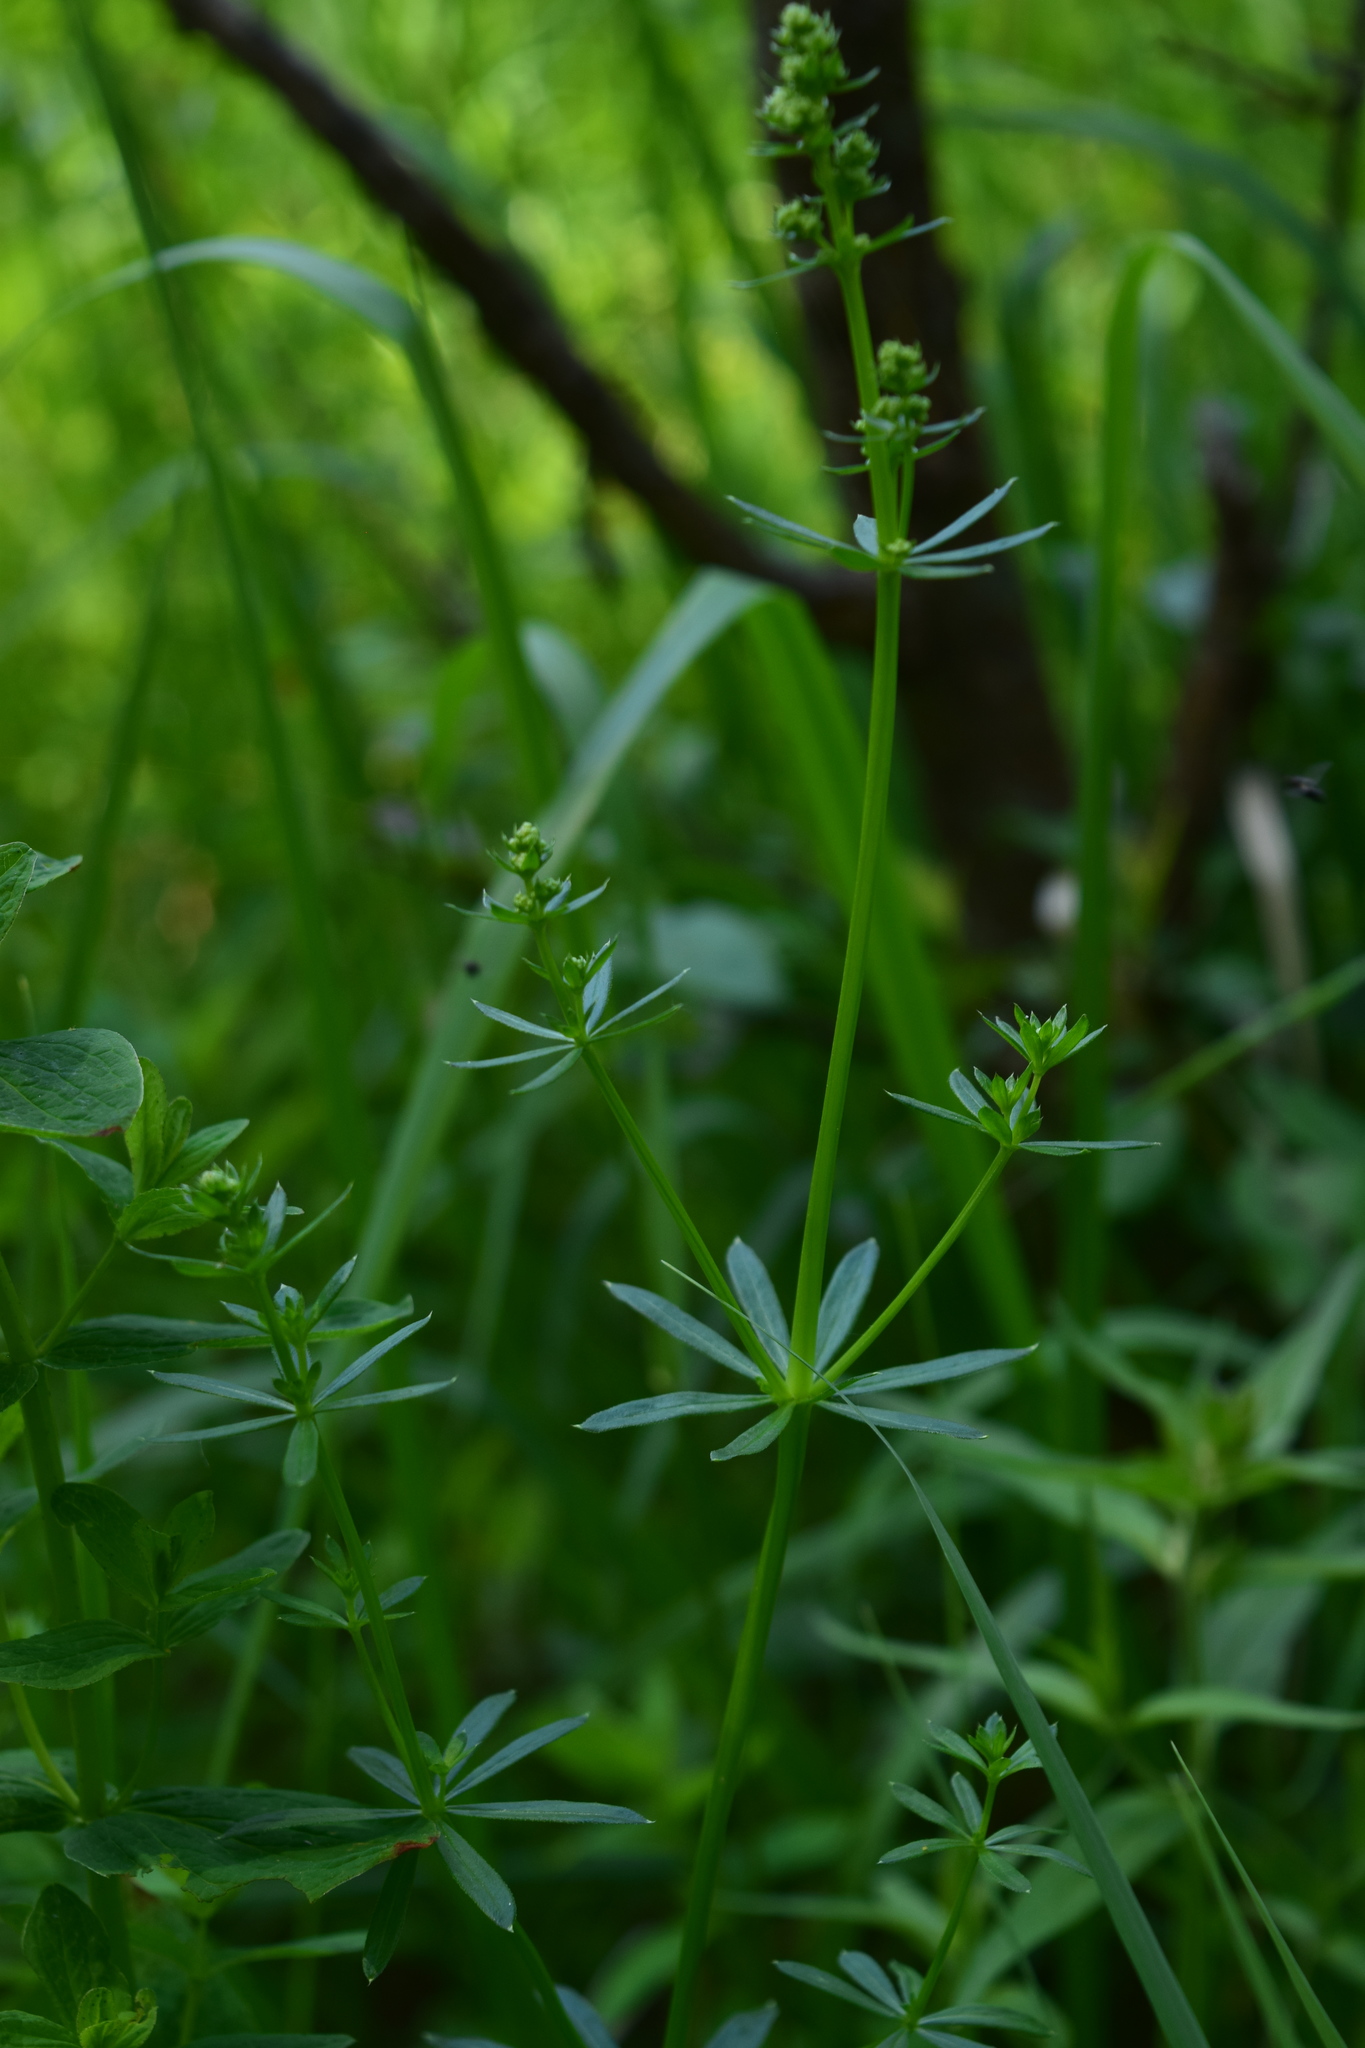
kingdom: Plantae
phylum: Tracheophyta
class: Magnoliopsida
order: Gentianales
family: Rubiaceae
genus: Galium
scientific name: Galium mollugo
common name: Hedge bedstraw
